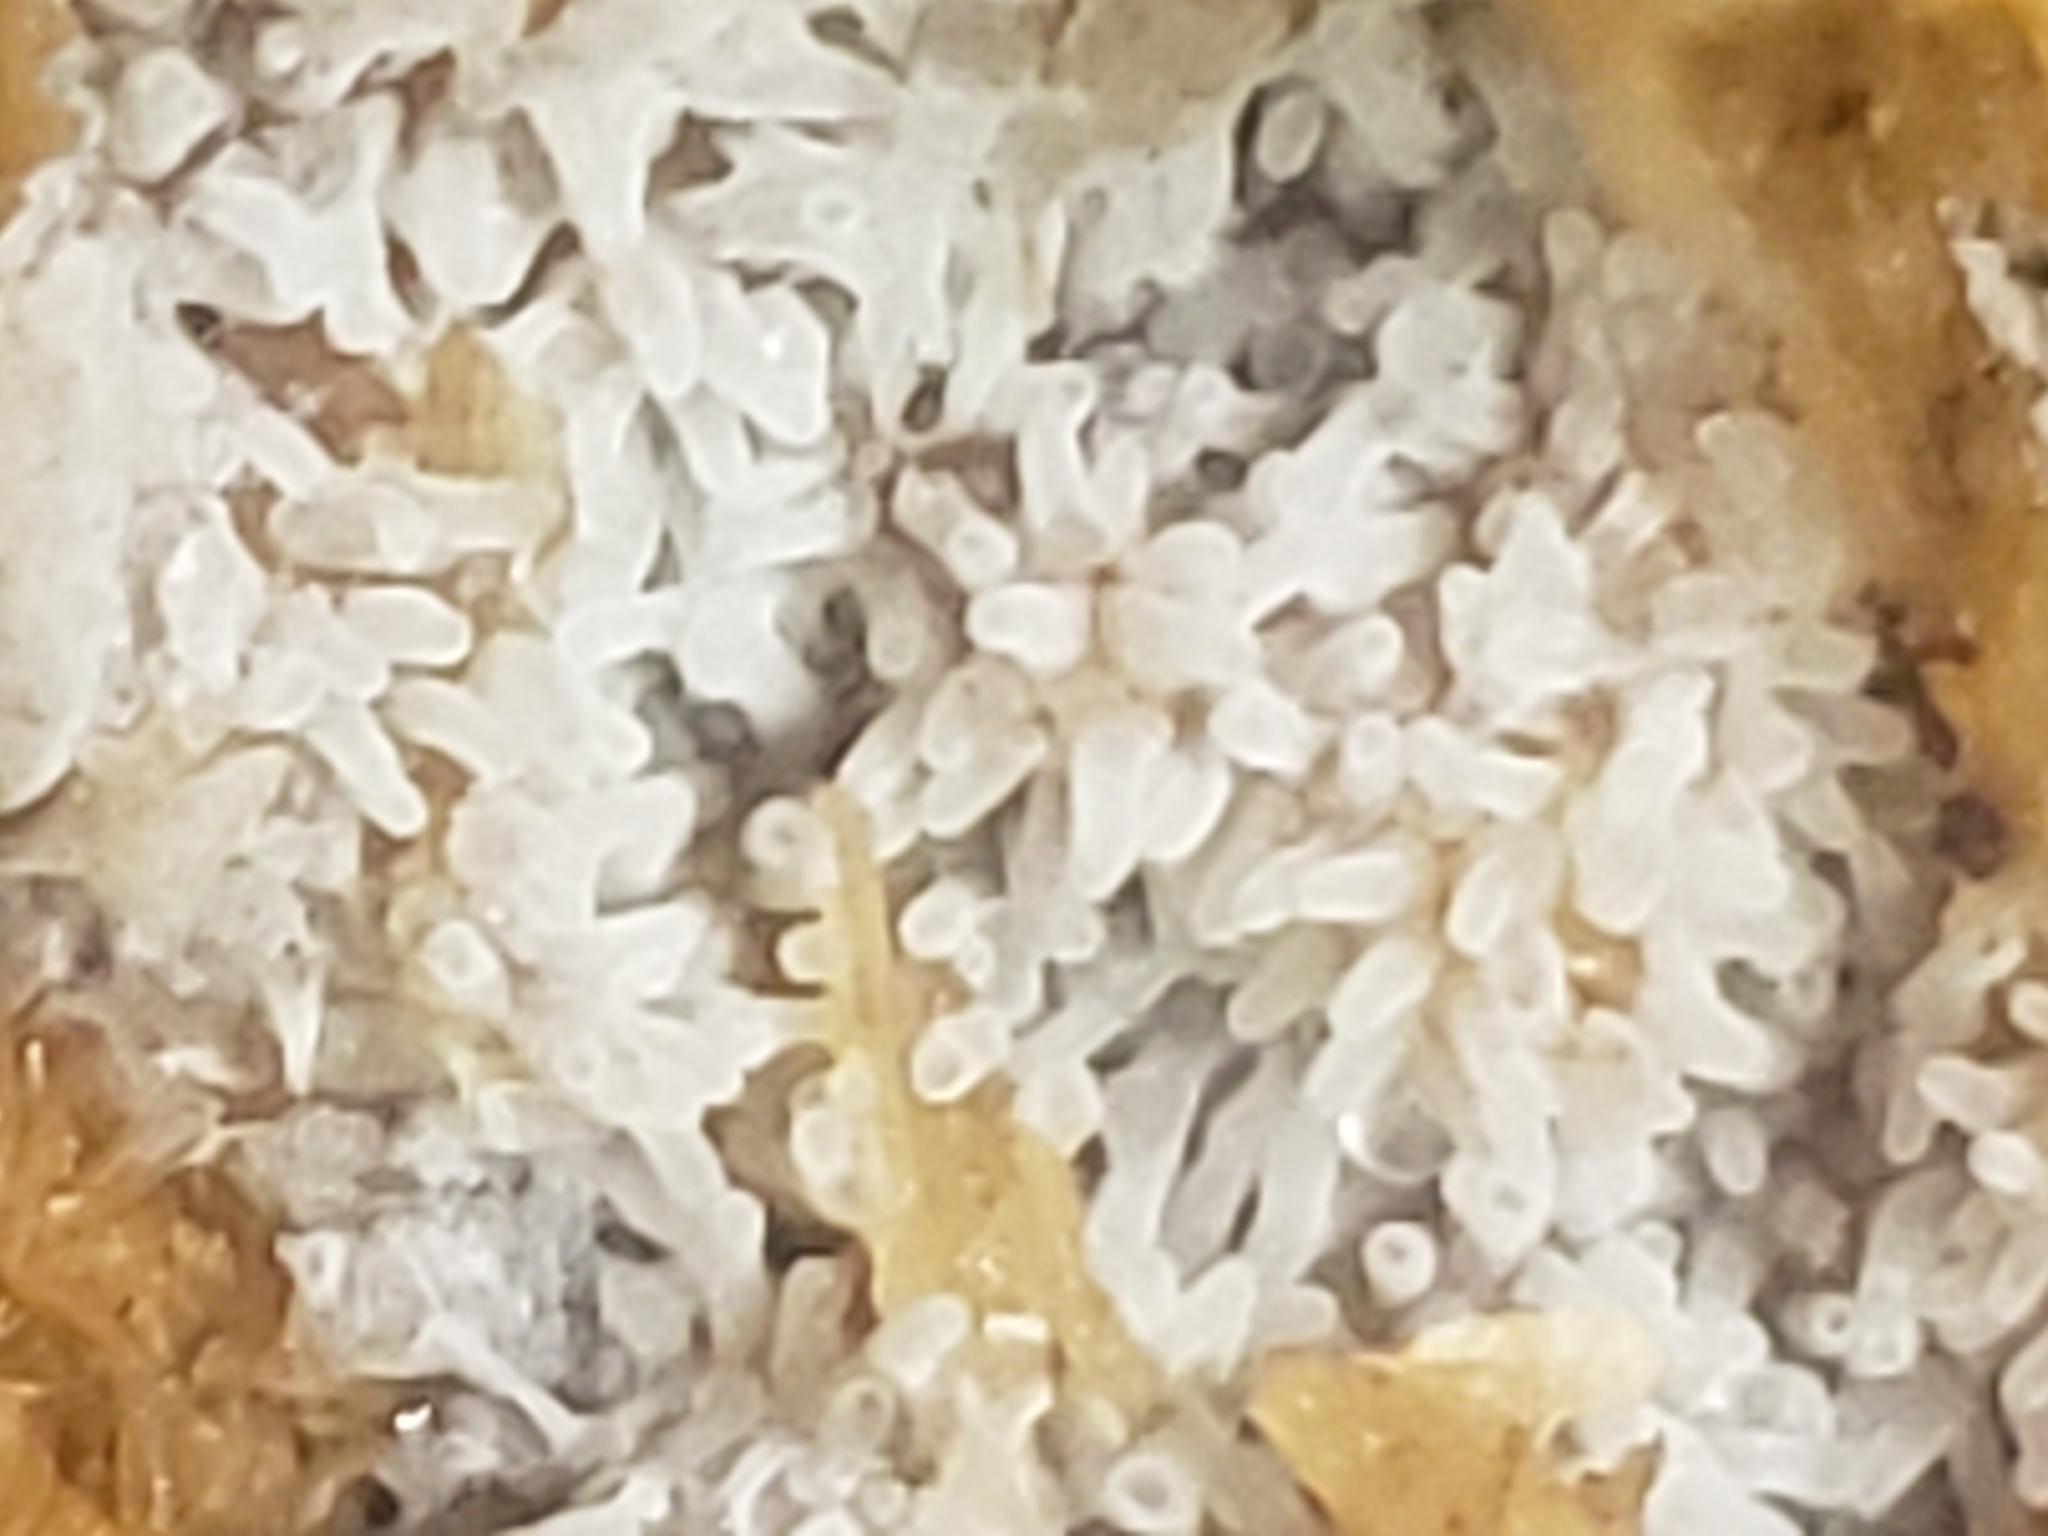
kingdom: Protozoa
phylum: Mycetozoa
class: Protosteliomycetes
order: Ceratiomyxales
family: Ceratiomyxaceae
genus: Ceratiomyxa
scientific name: Ceratiomyxa fruticulosa
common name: Honeycomb coral slime mold
